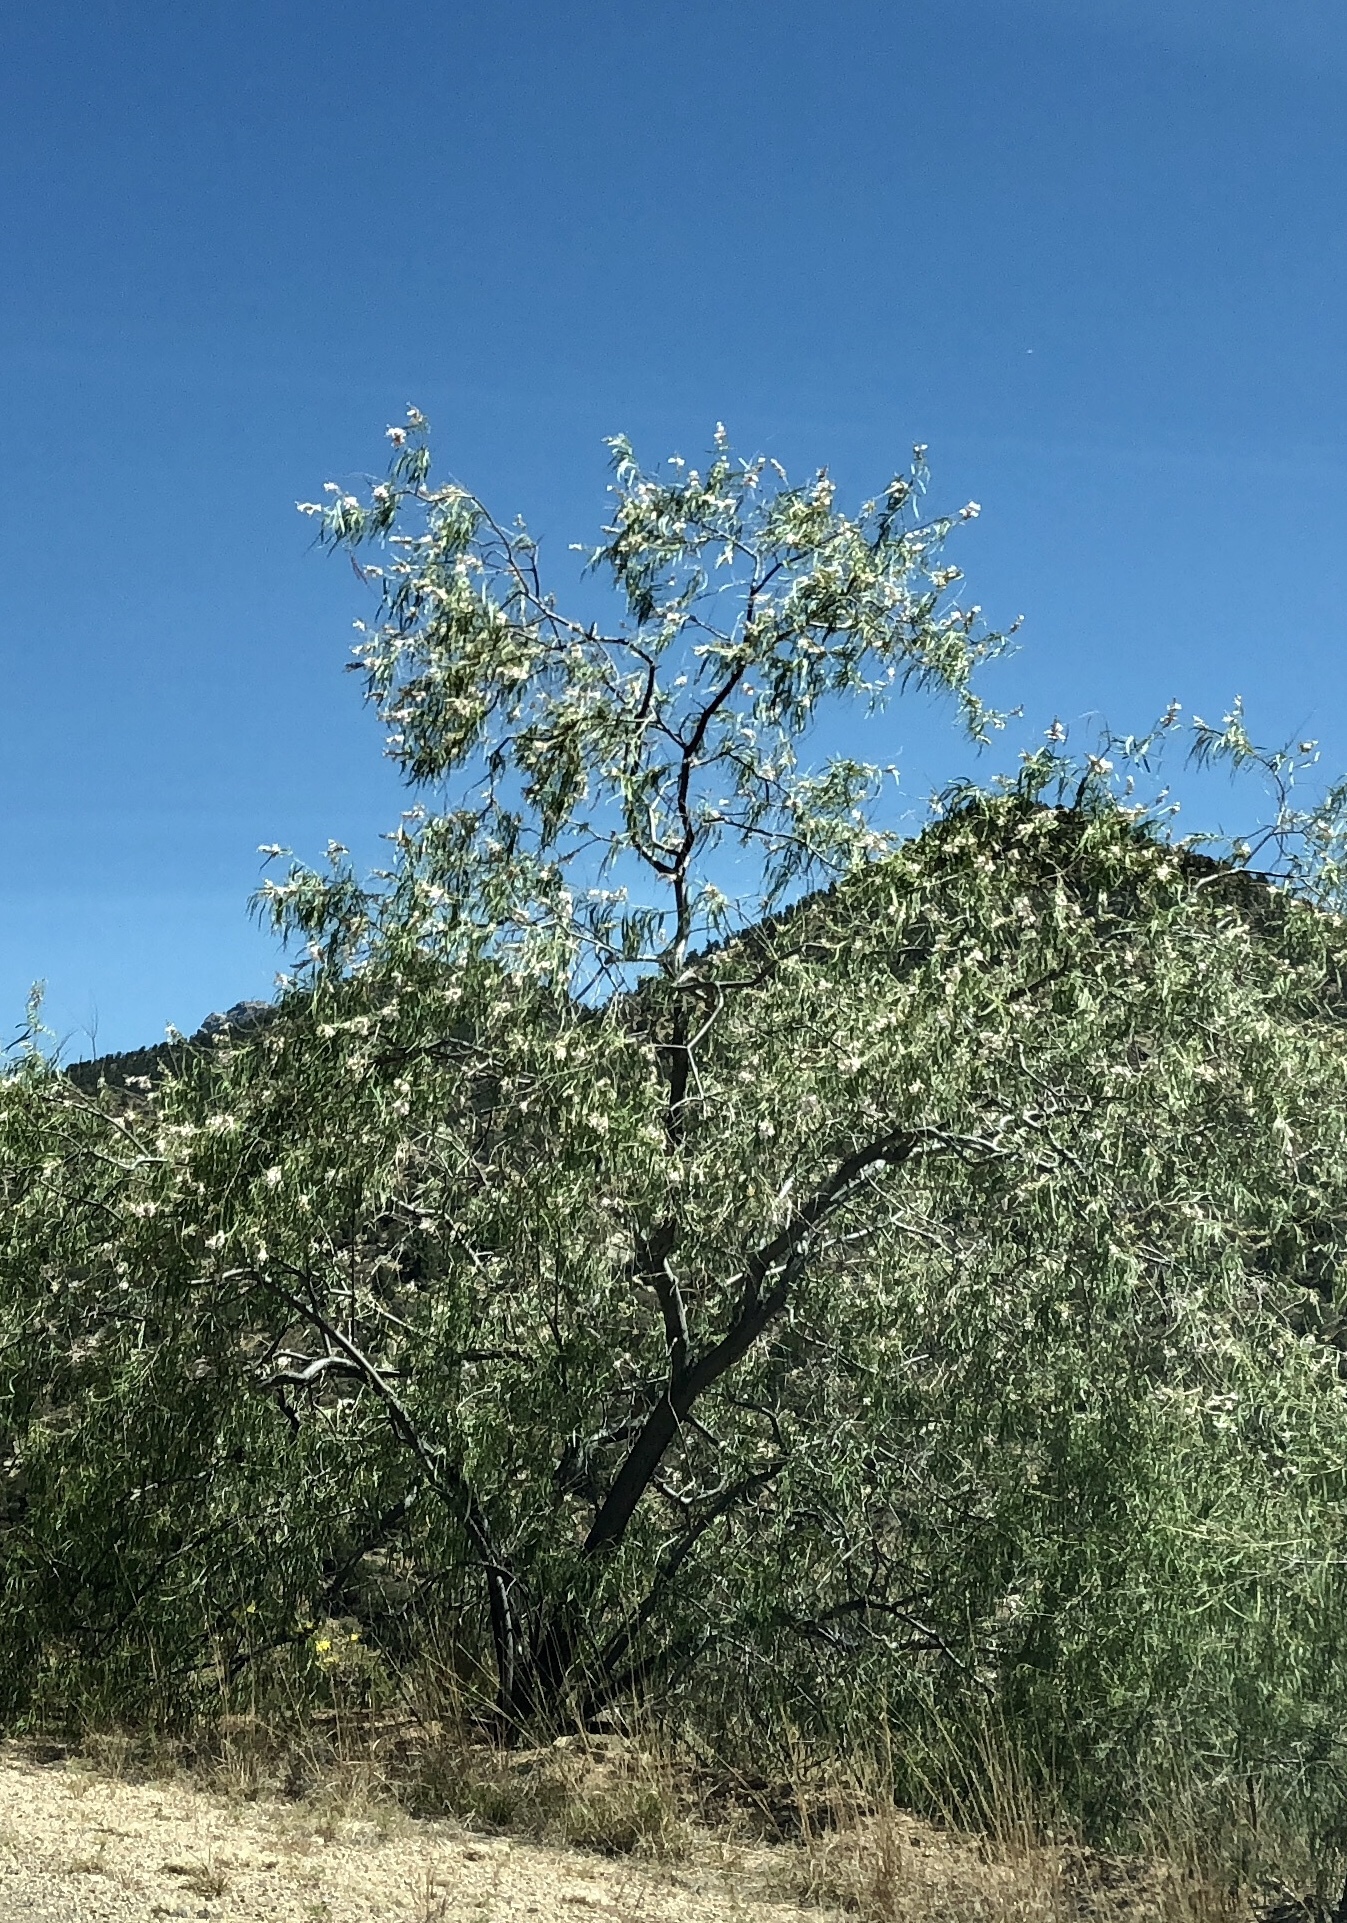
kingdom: Plantae
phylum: Tracheophyta
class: Magnoliopsida
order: Lamiales
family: Bignoniaceae
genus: Chilopsis
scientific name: Chilopsis linearis
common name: Desert-willow
